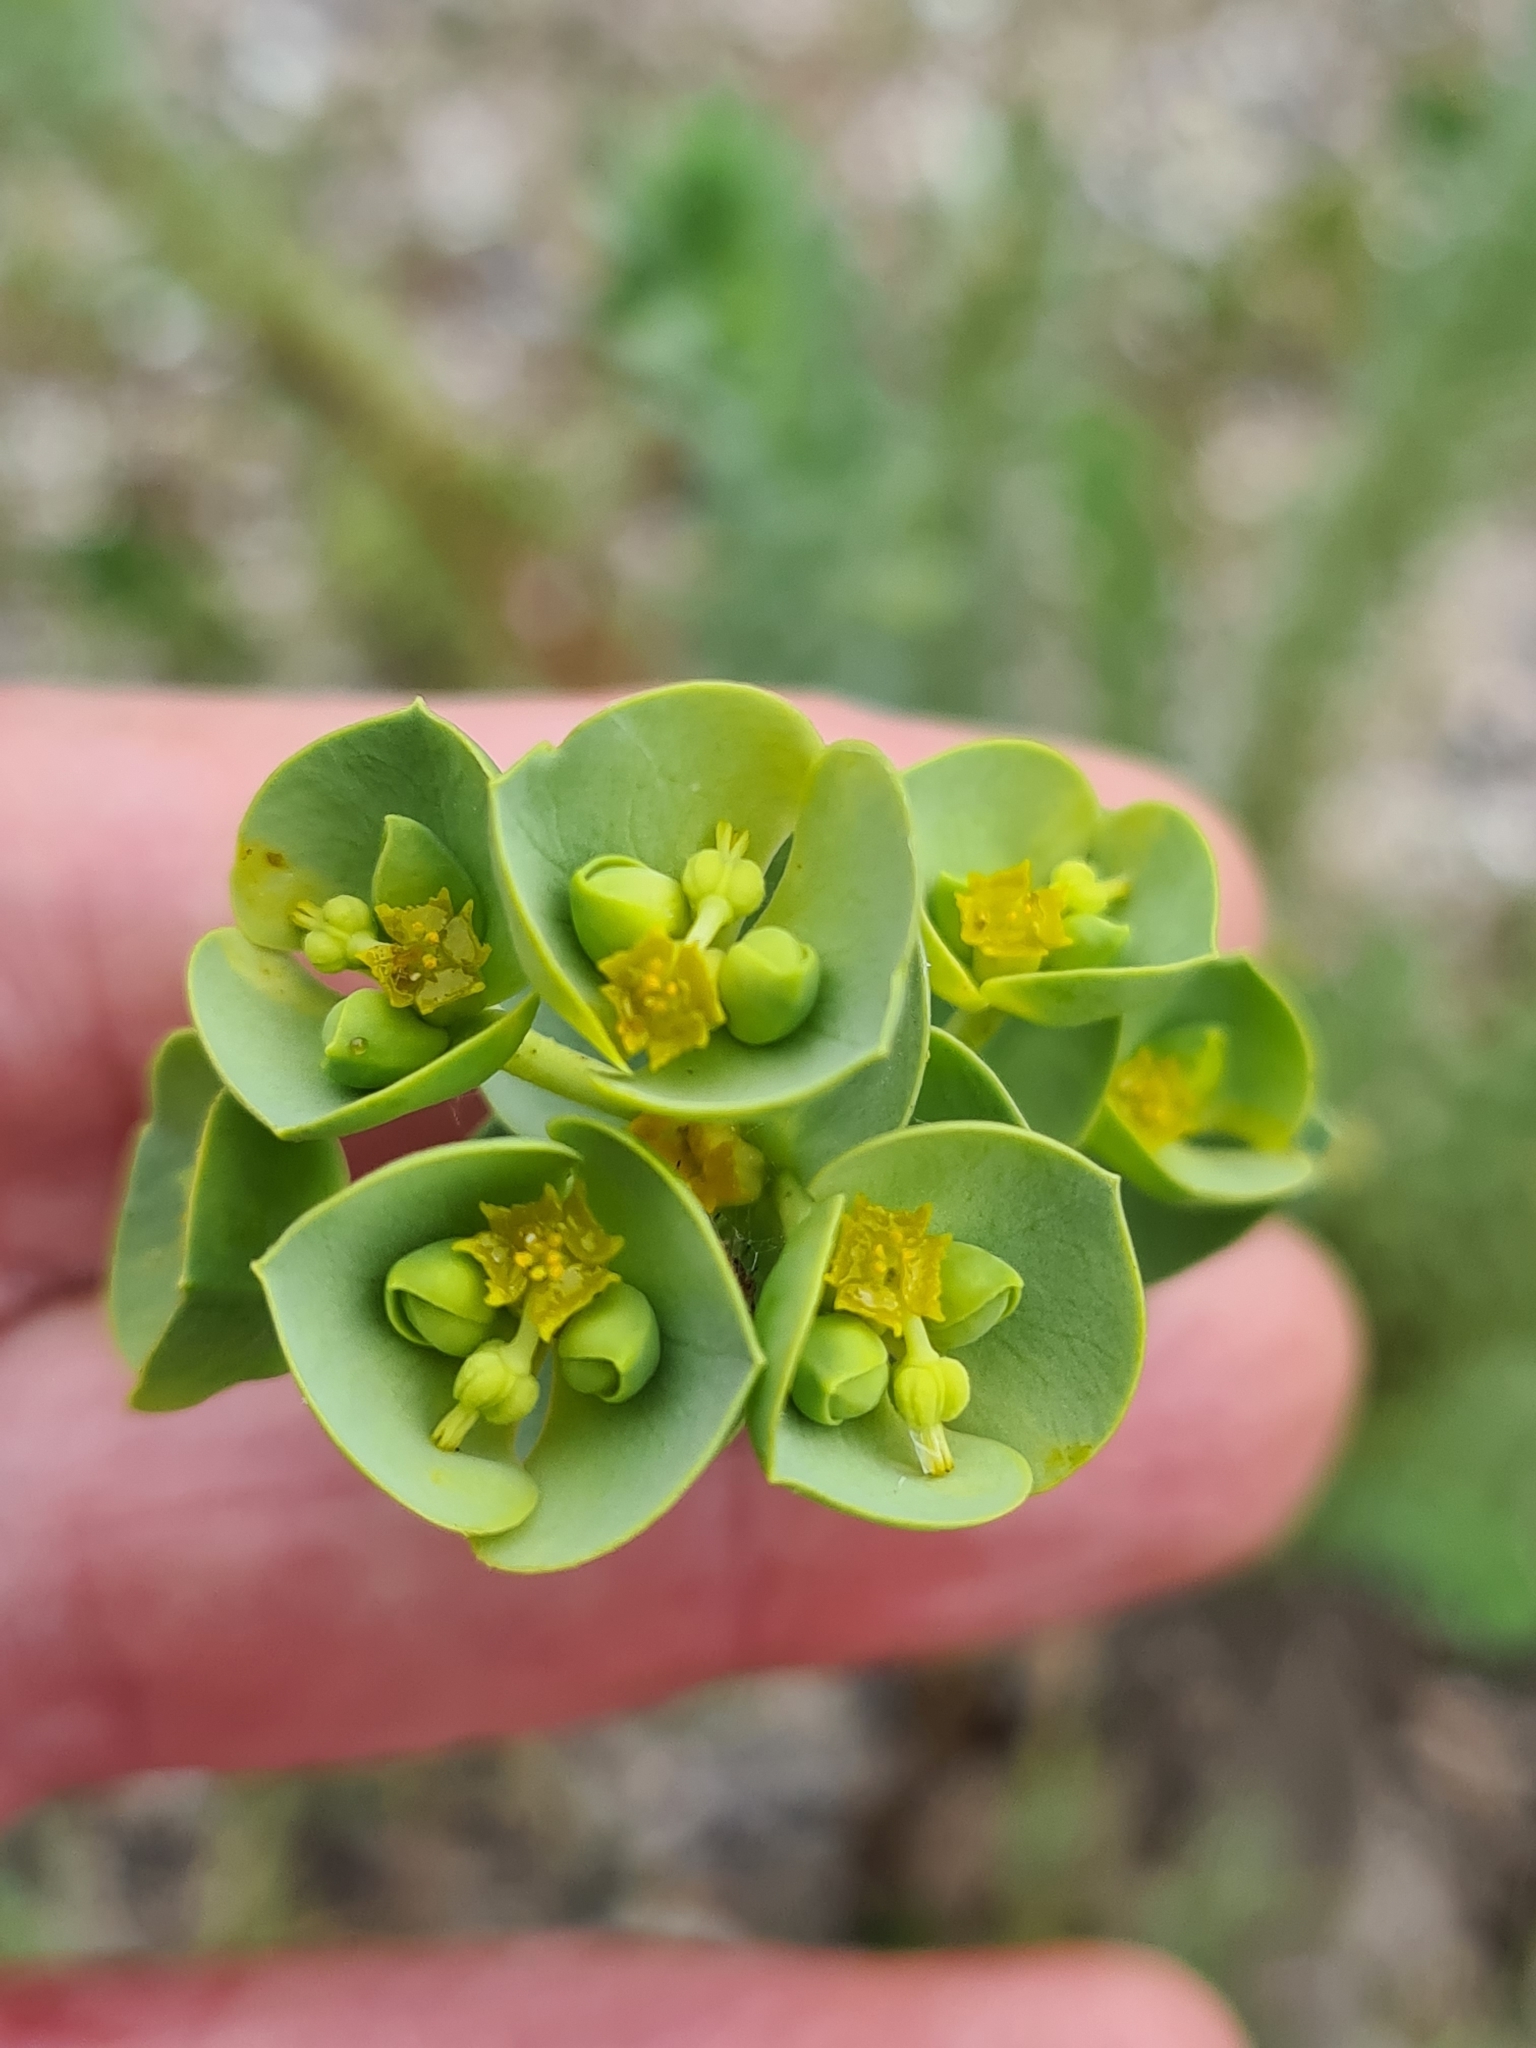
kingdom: Plantae
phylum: Tracheophyta
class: Magnoliopsida
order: Malpighiales
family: Euphorbiaceae
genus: Euphorbia
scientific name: Euphorbia paralias
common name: Sea spurge
